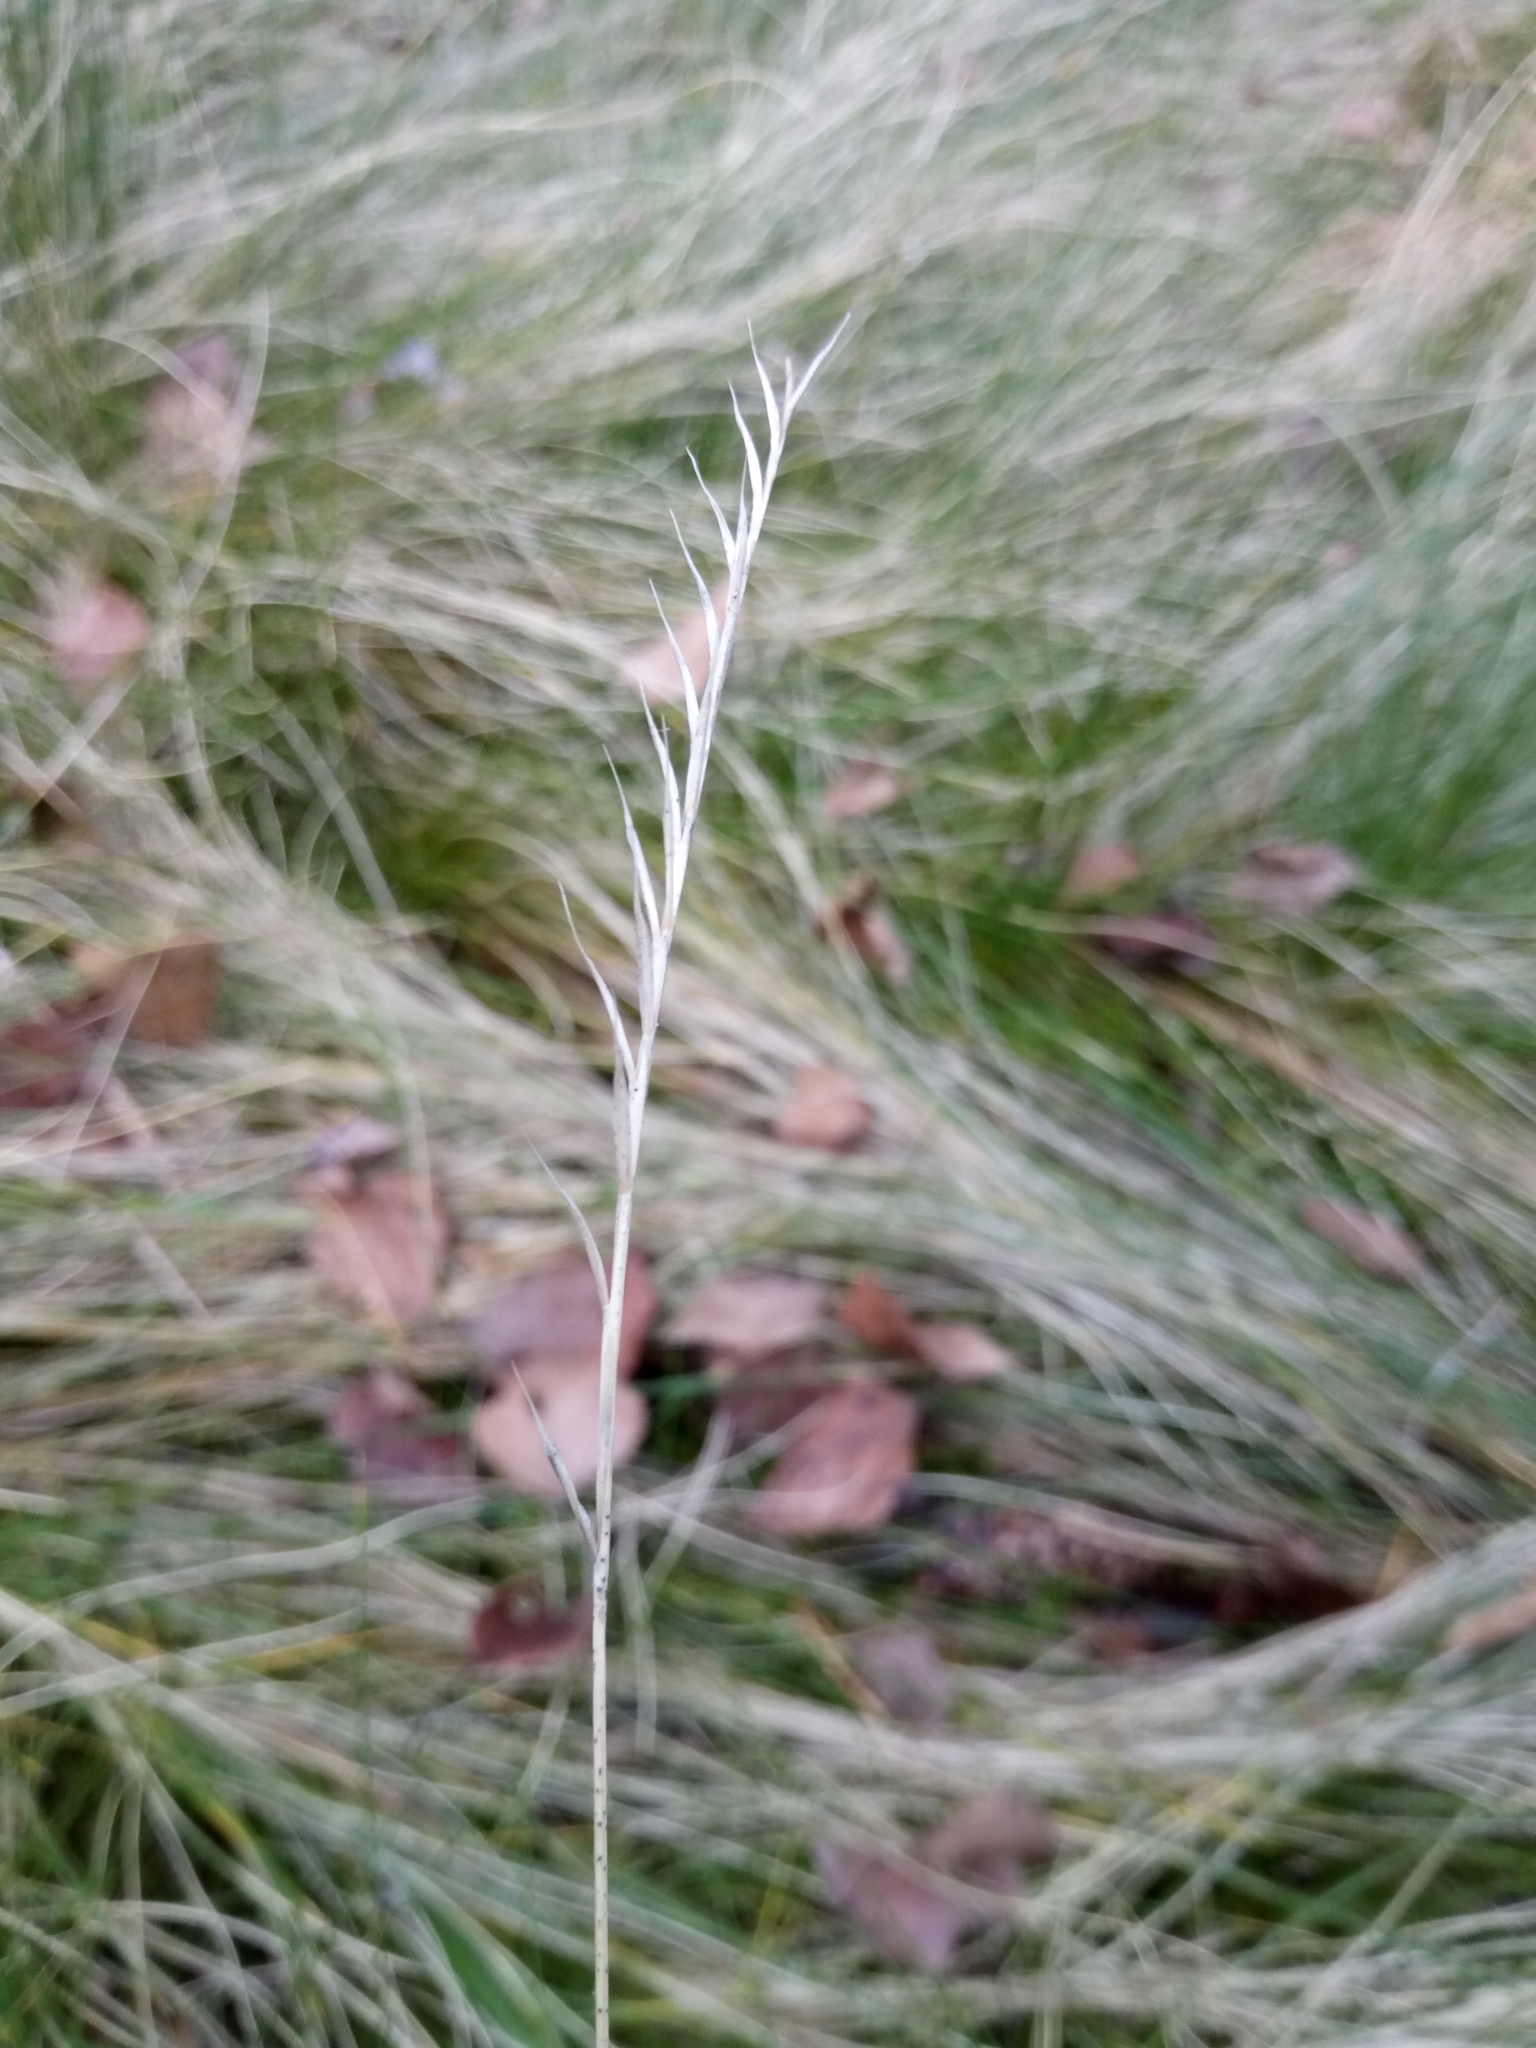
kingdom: Plantae
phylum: Tracheophyta
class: Liliopsida
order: Poales
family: Poaceae
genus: Nardus
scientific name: Nardus stricta
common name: Mat-grass
